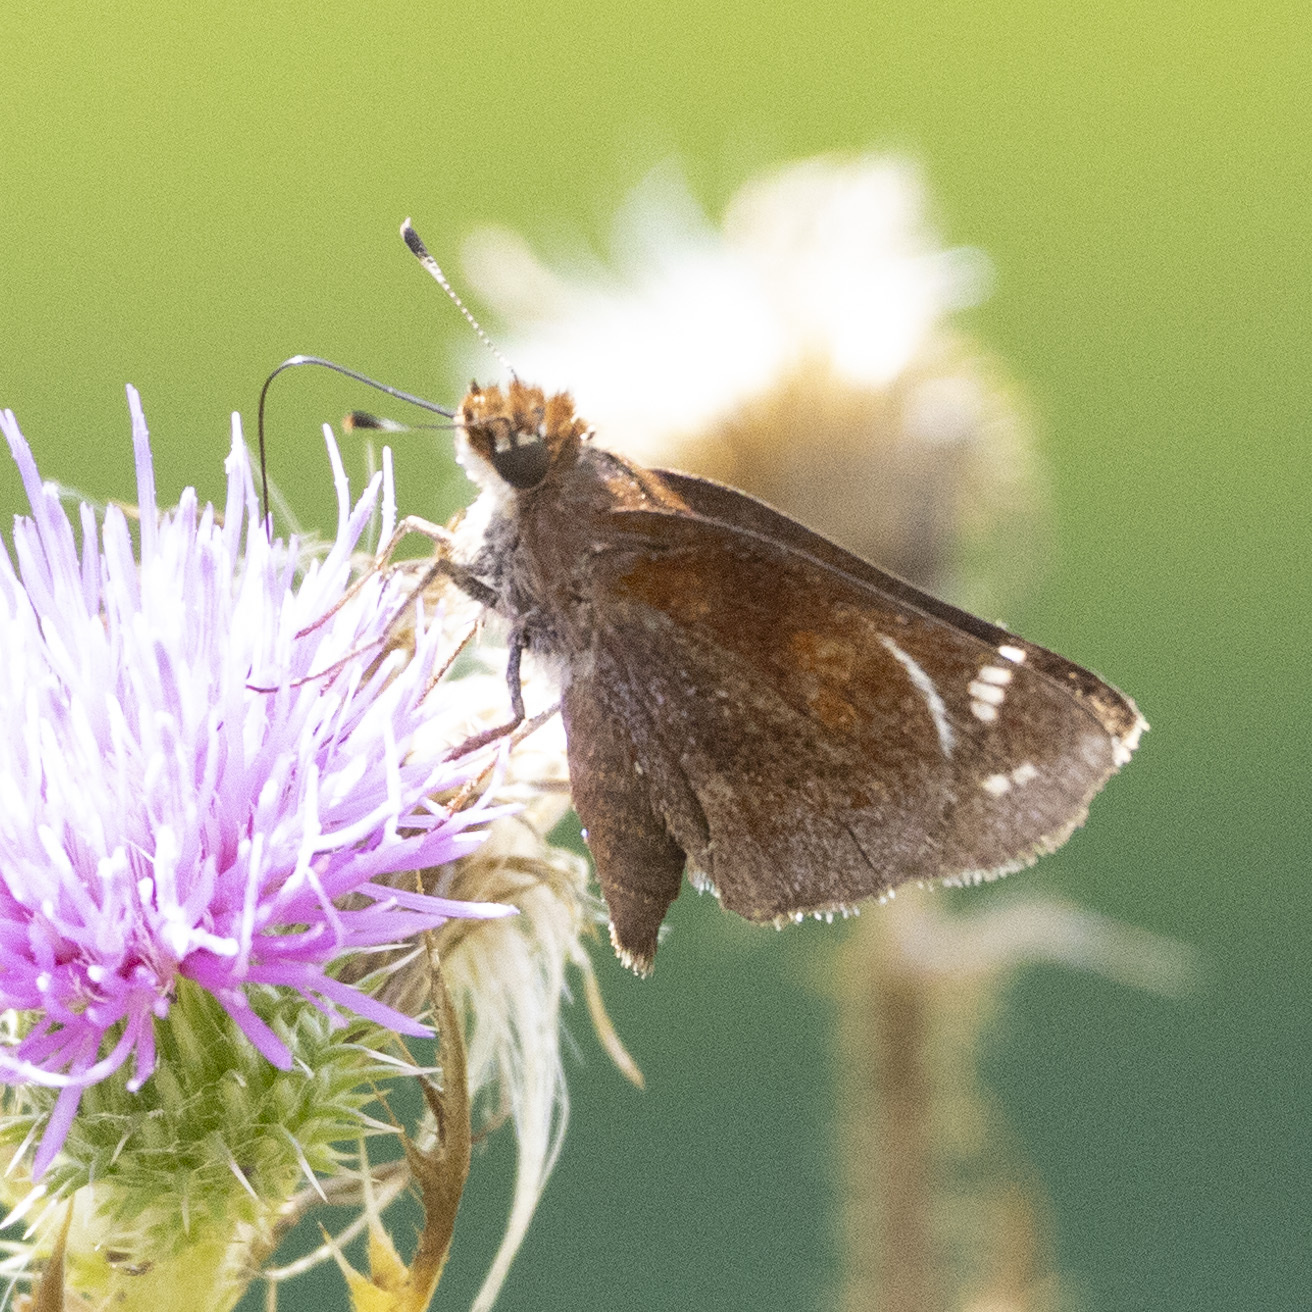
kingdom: Animalia
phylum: Arthropoda
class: Insecta
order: Lepidoptera
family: Hesperiidae
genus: Lon
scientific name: Lon zabulon
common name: Zabulon skipper
